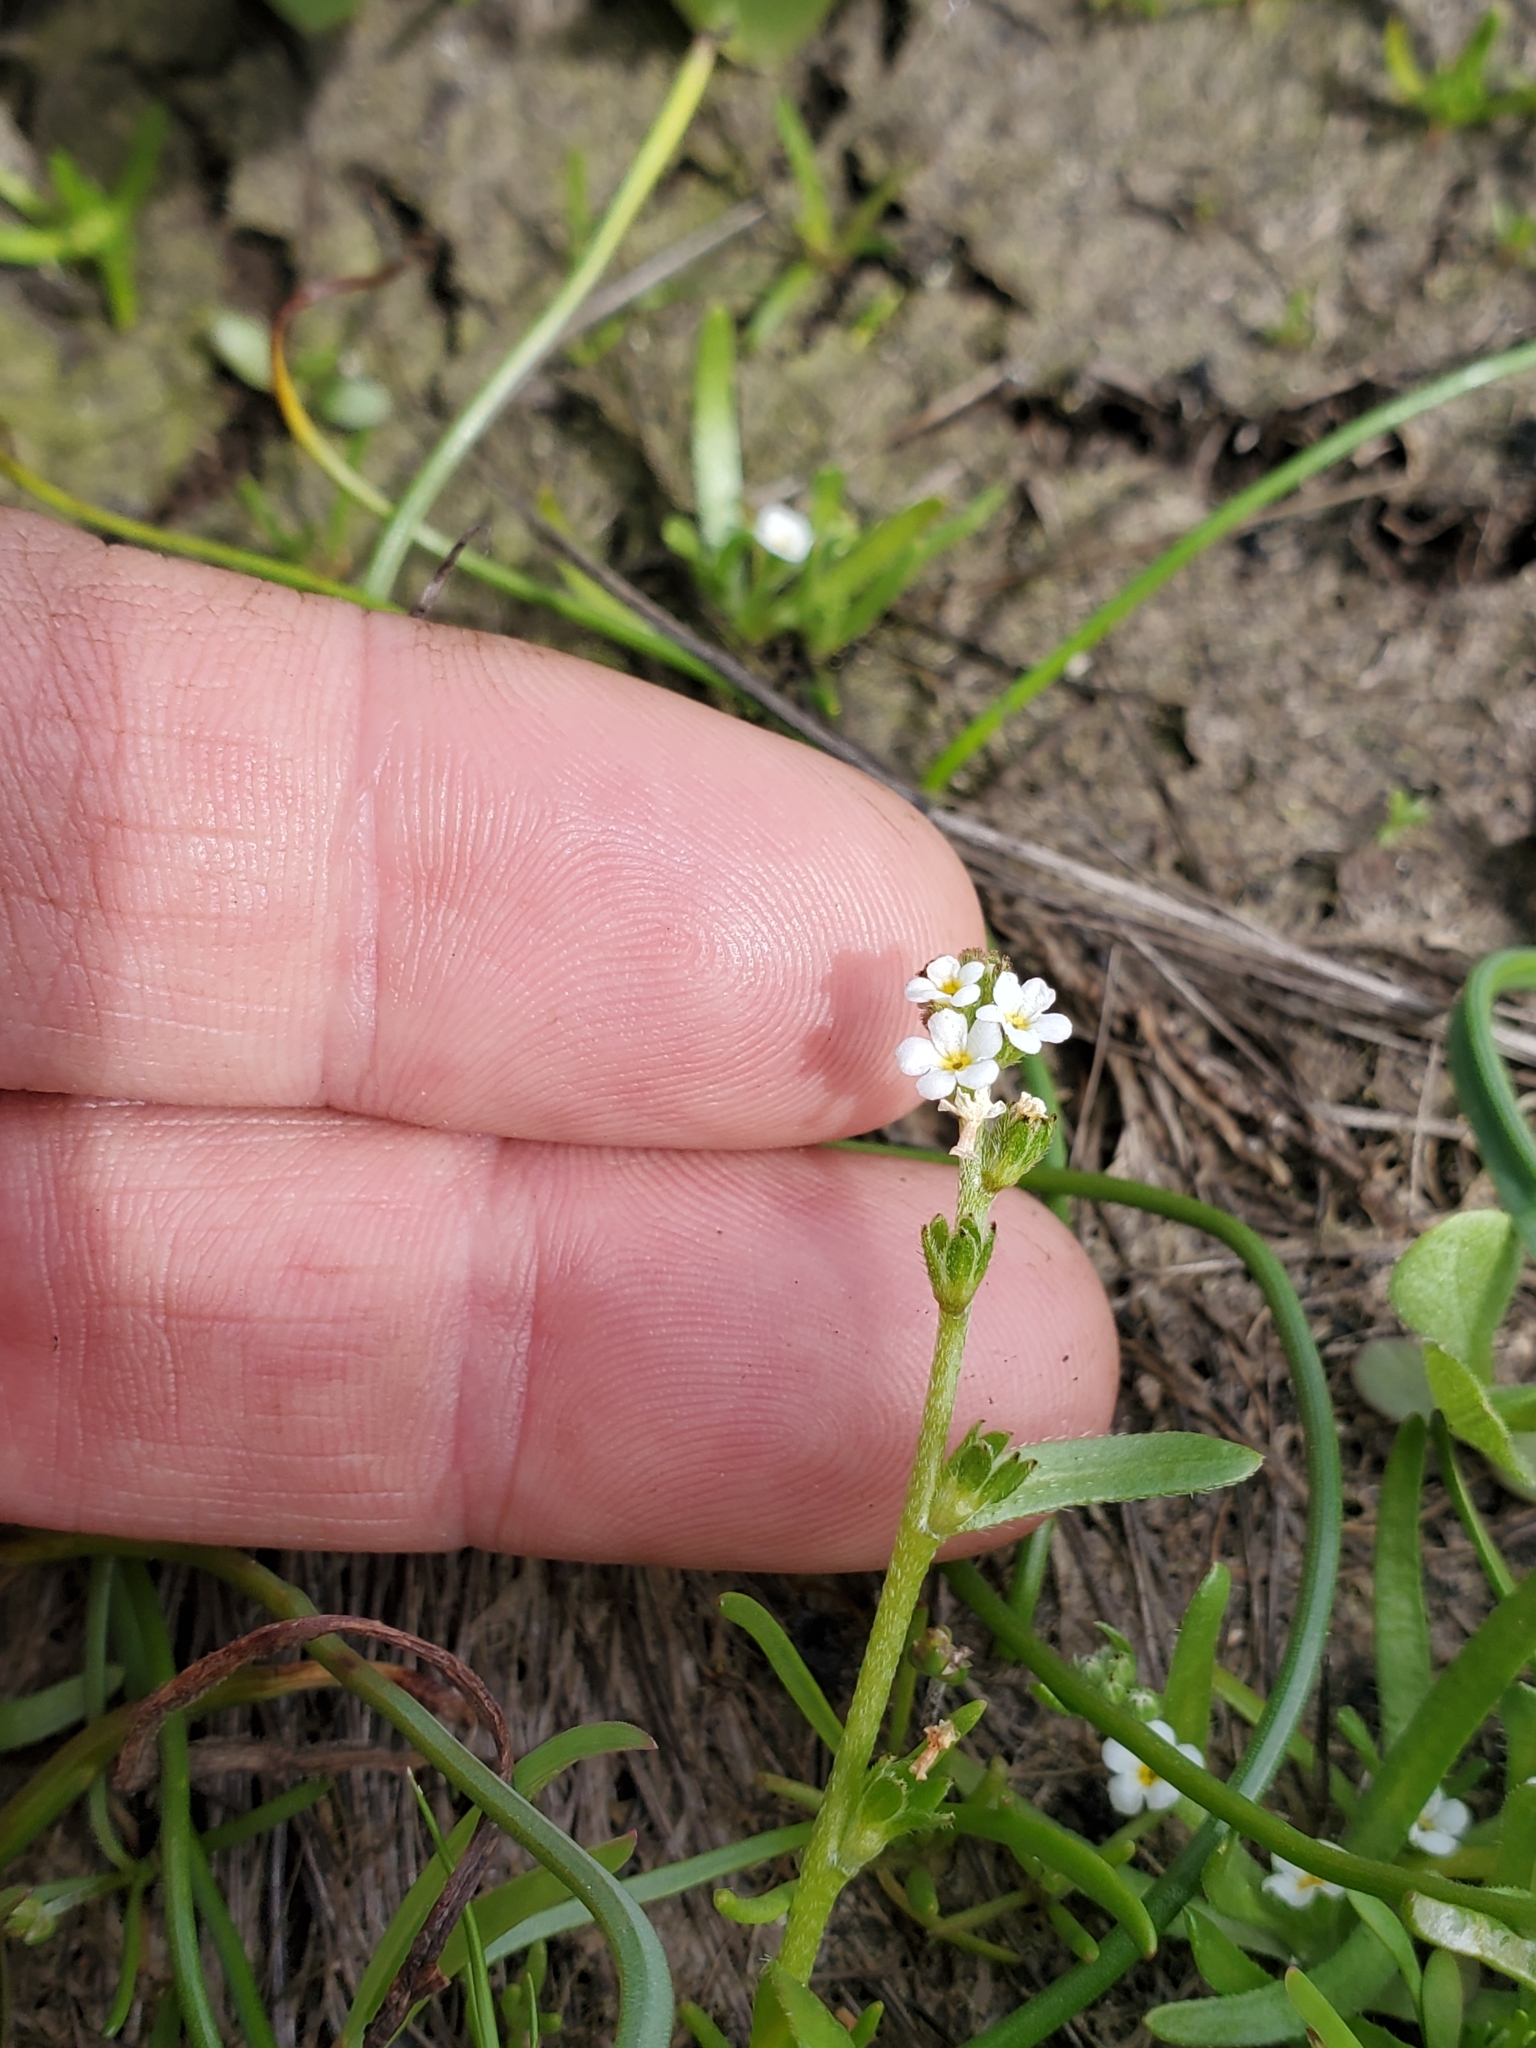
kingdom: Plantae
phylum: Tracheophyta
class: Magnoliopsida
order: Boraginales
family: Boraginaceae
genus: Plagiobothrys
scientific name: Plagiobothrys scouleri
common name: White forget-me-not
